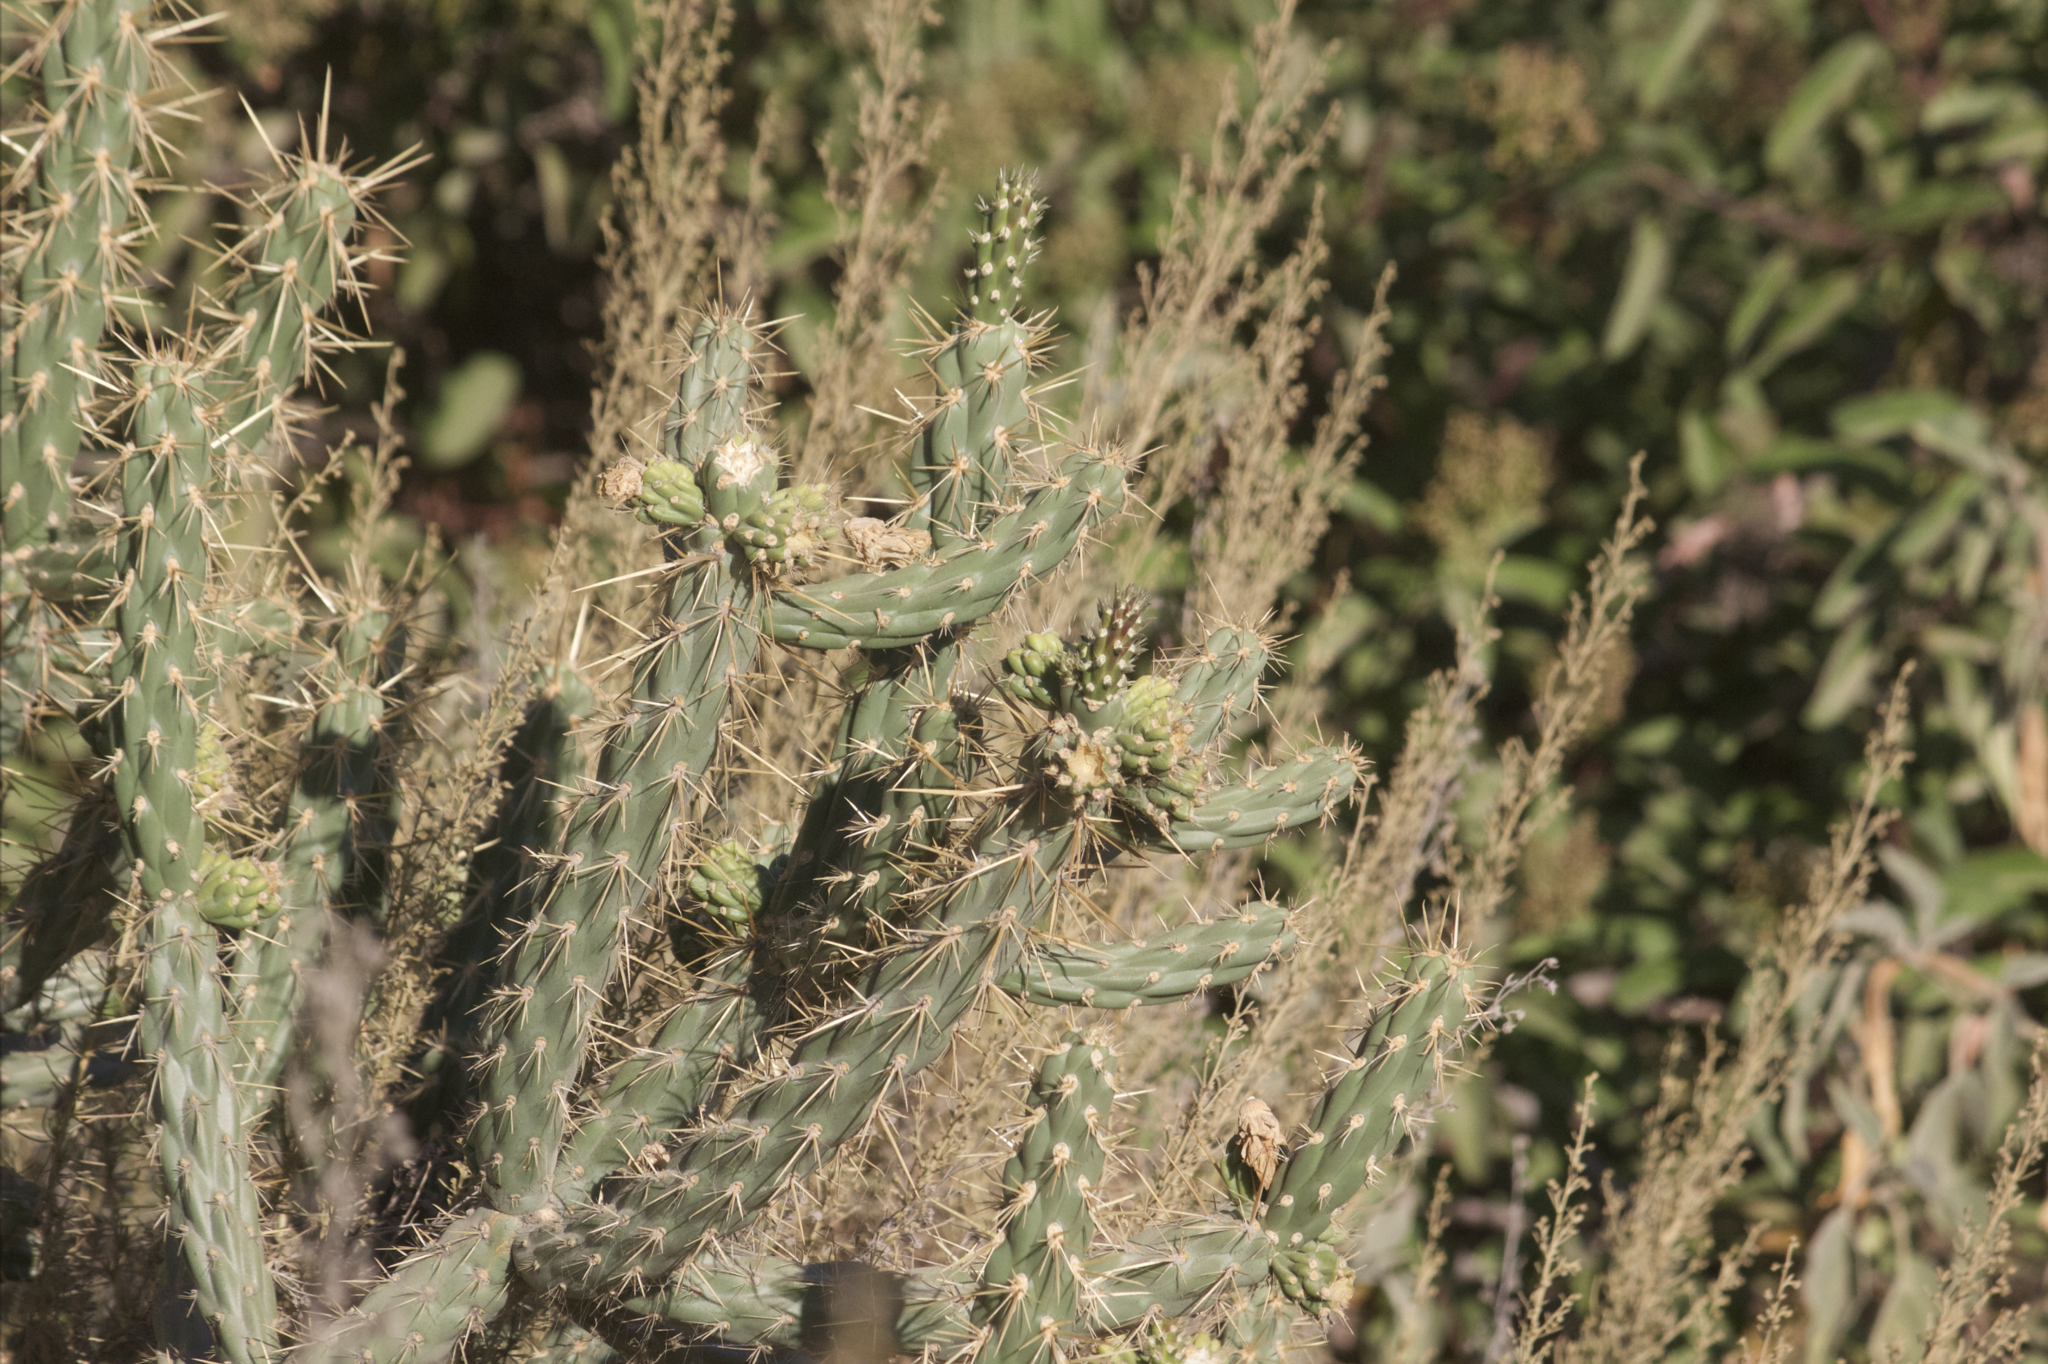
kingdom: Plantae
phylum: Tracheophyta
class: Magnoliopsida
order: Caryophyllales
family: Cactaceae
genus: Cylindropuntia
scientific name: Cylindropuntia bernardina
